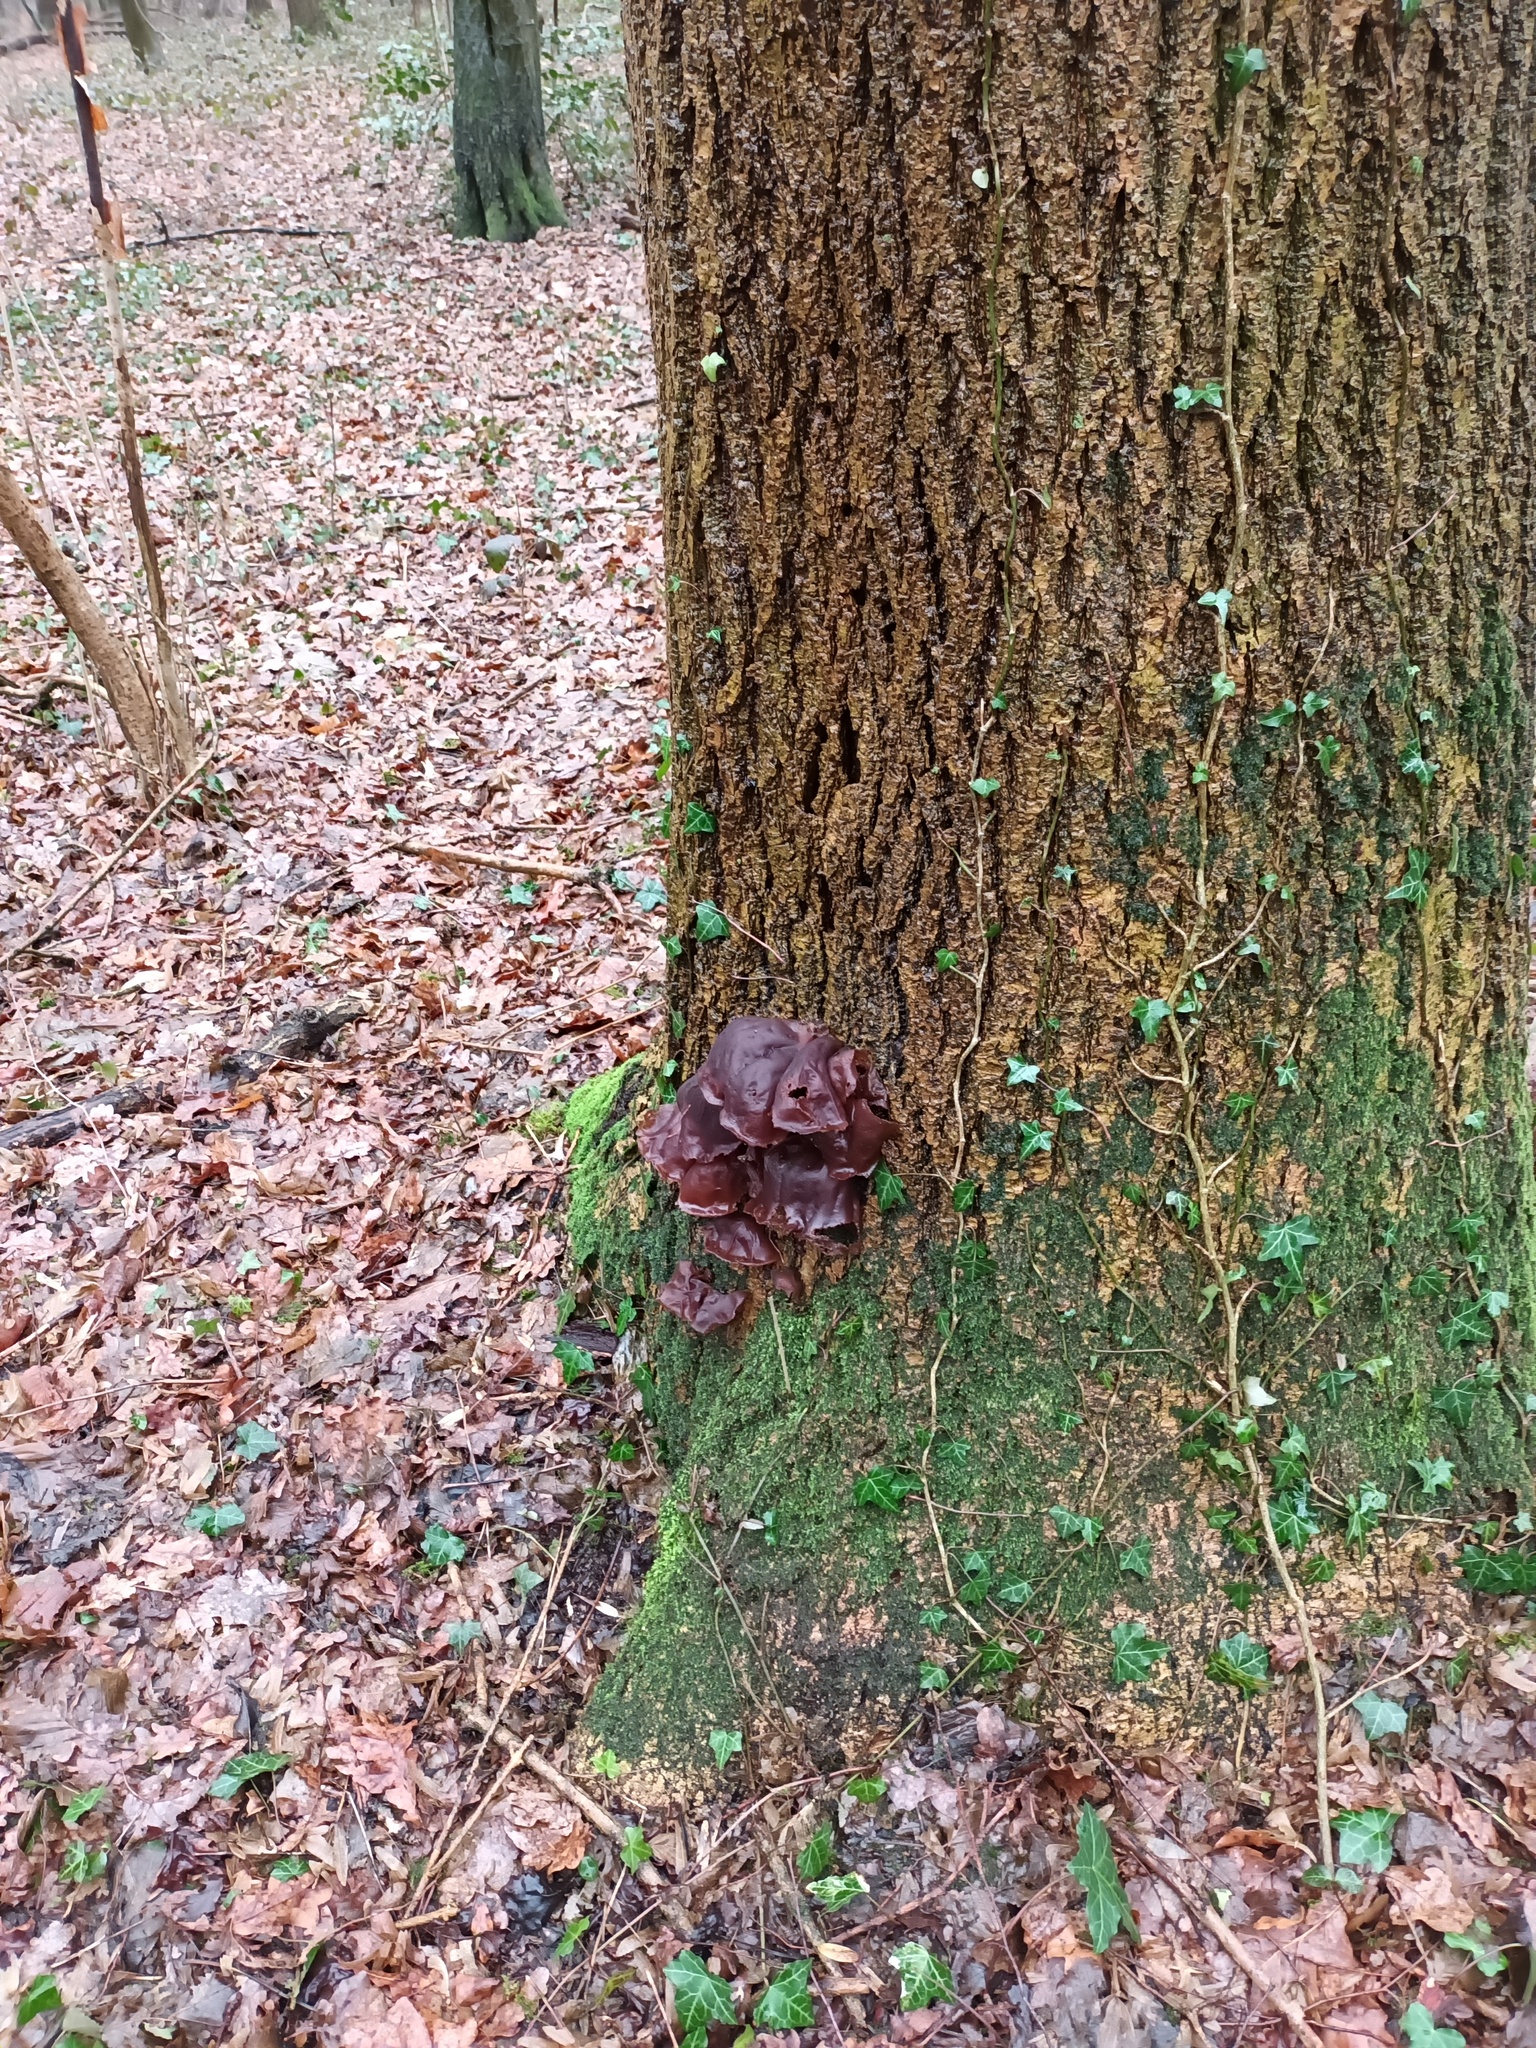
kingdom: Fungi
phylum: Basidiomycota
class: Agaricomycetes
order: Auriculariales
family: Auriculariaceae
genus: Auricularia
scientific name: Auricularia auricula-judae
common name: Jelly ear
